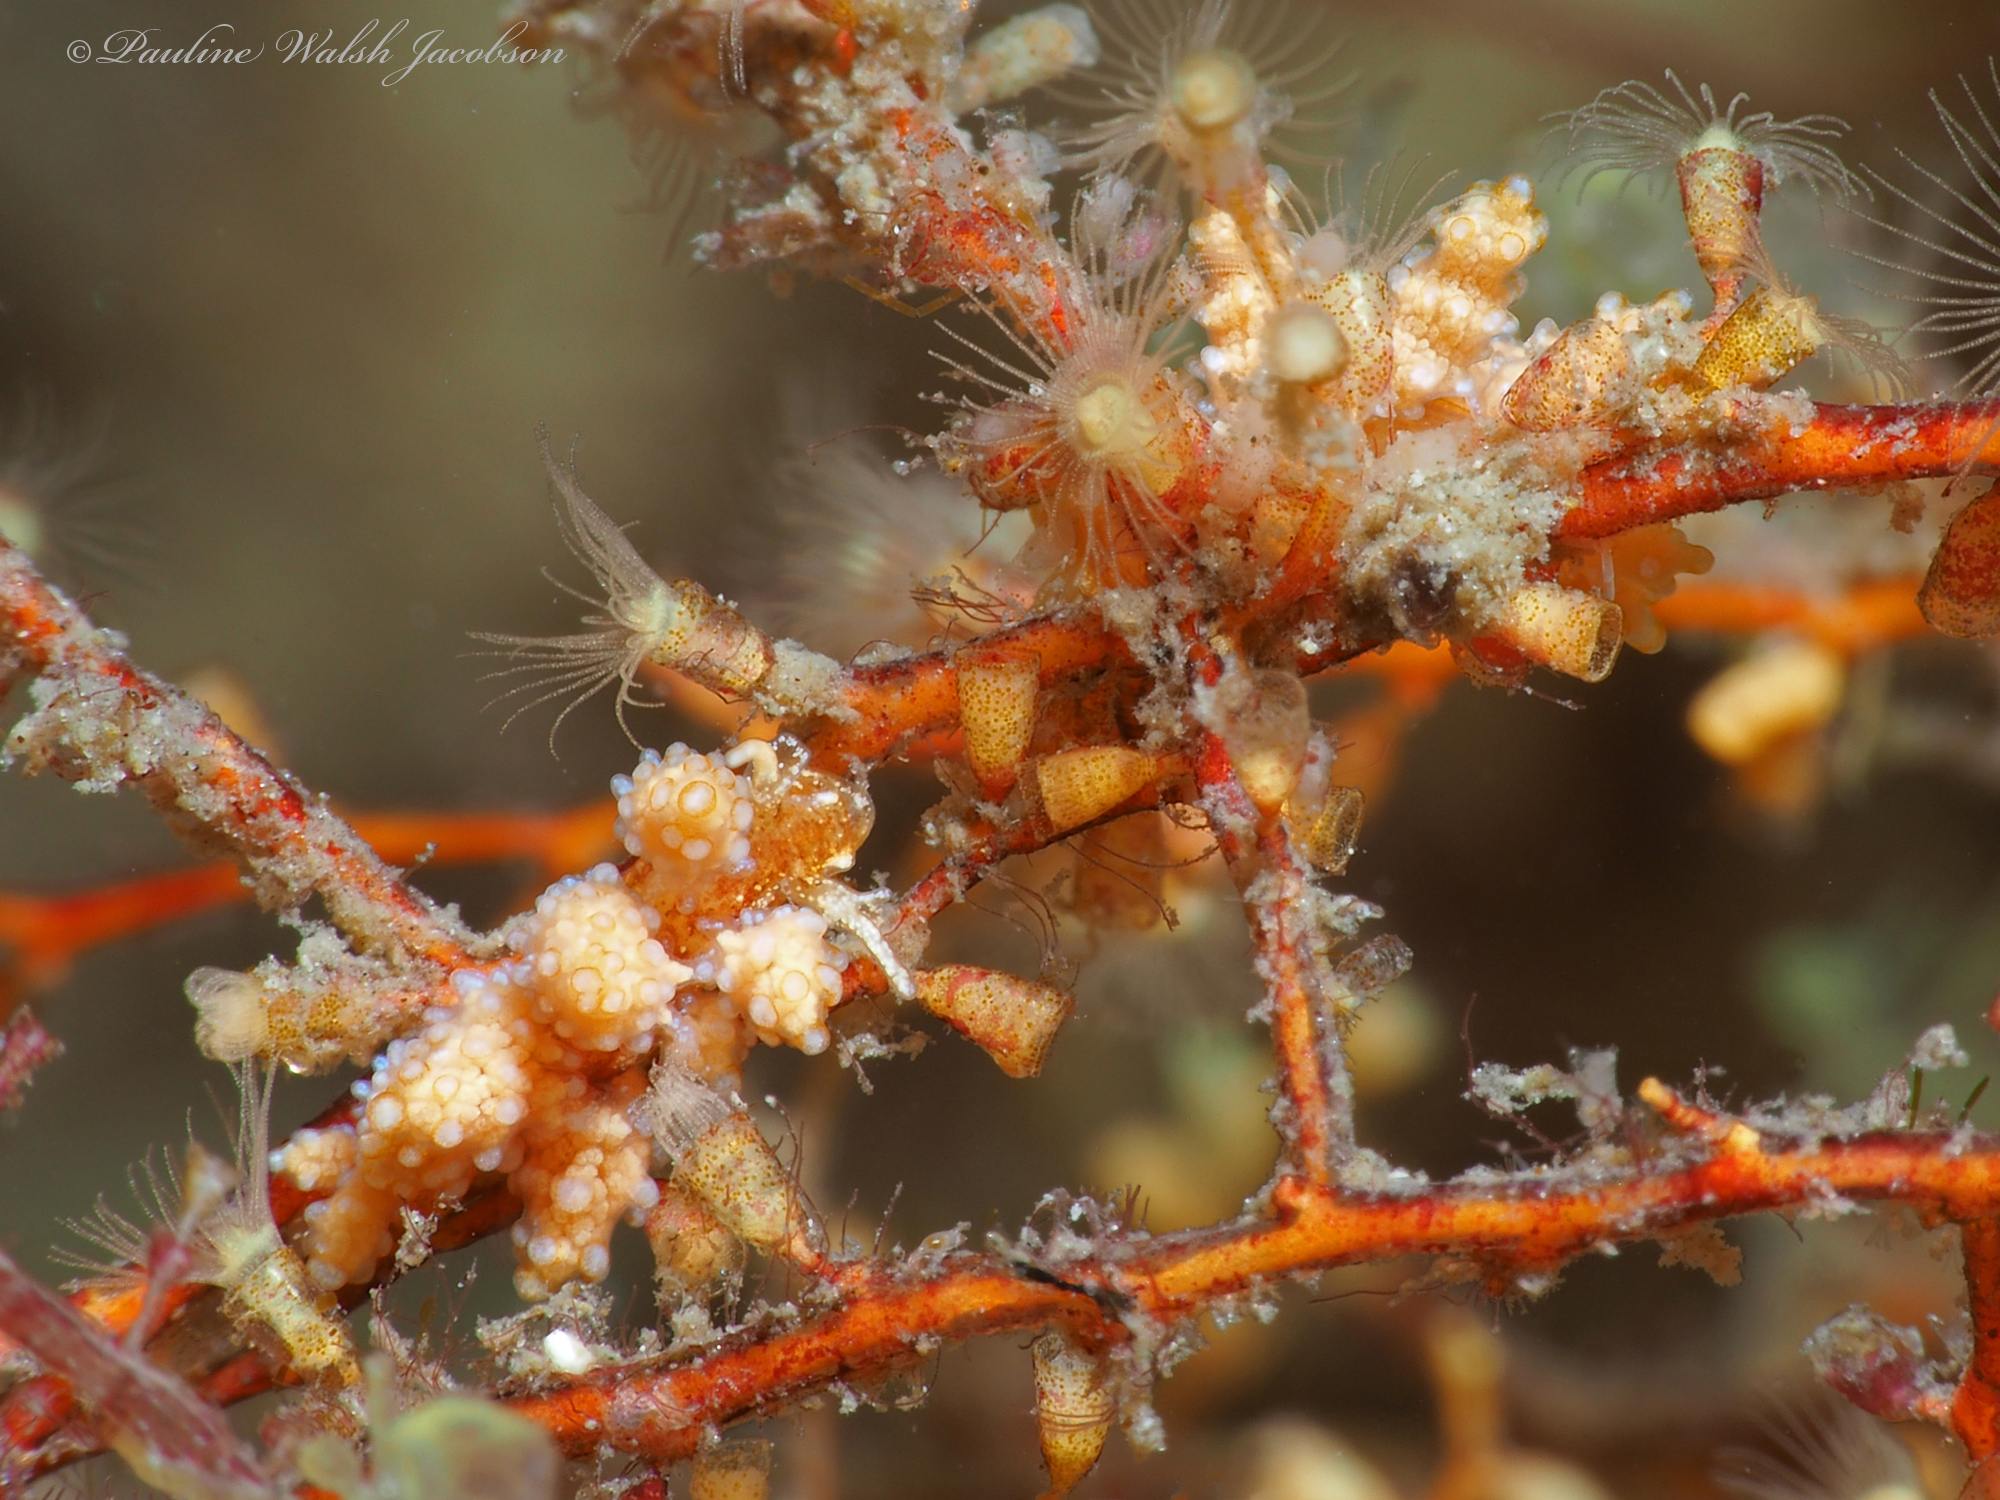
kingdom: Animalia
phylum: Mollusca
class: Gastropoda
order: Nudibranchia
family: Dotidae
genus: Doto
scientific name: Doto torrelavega
